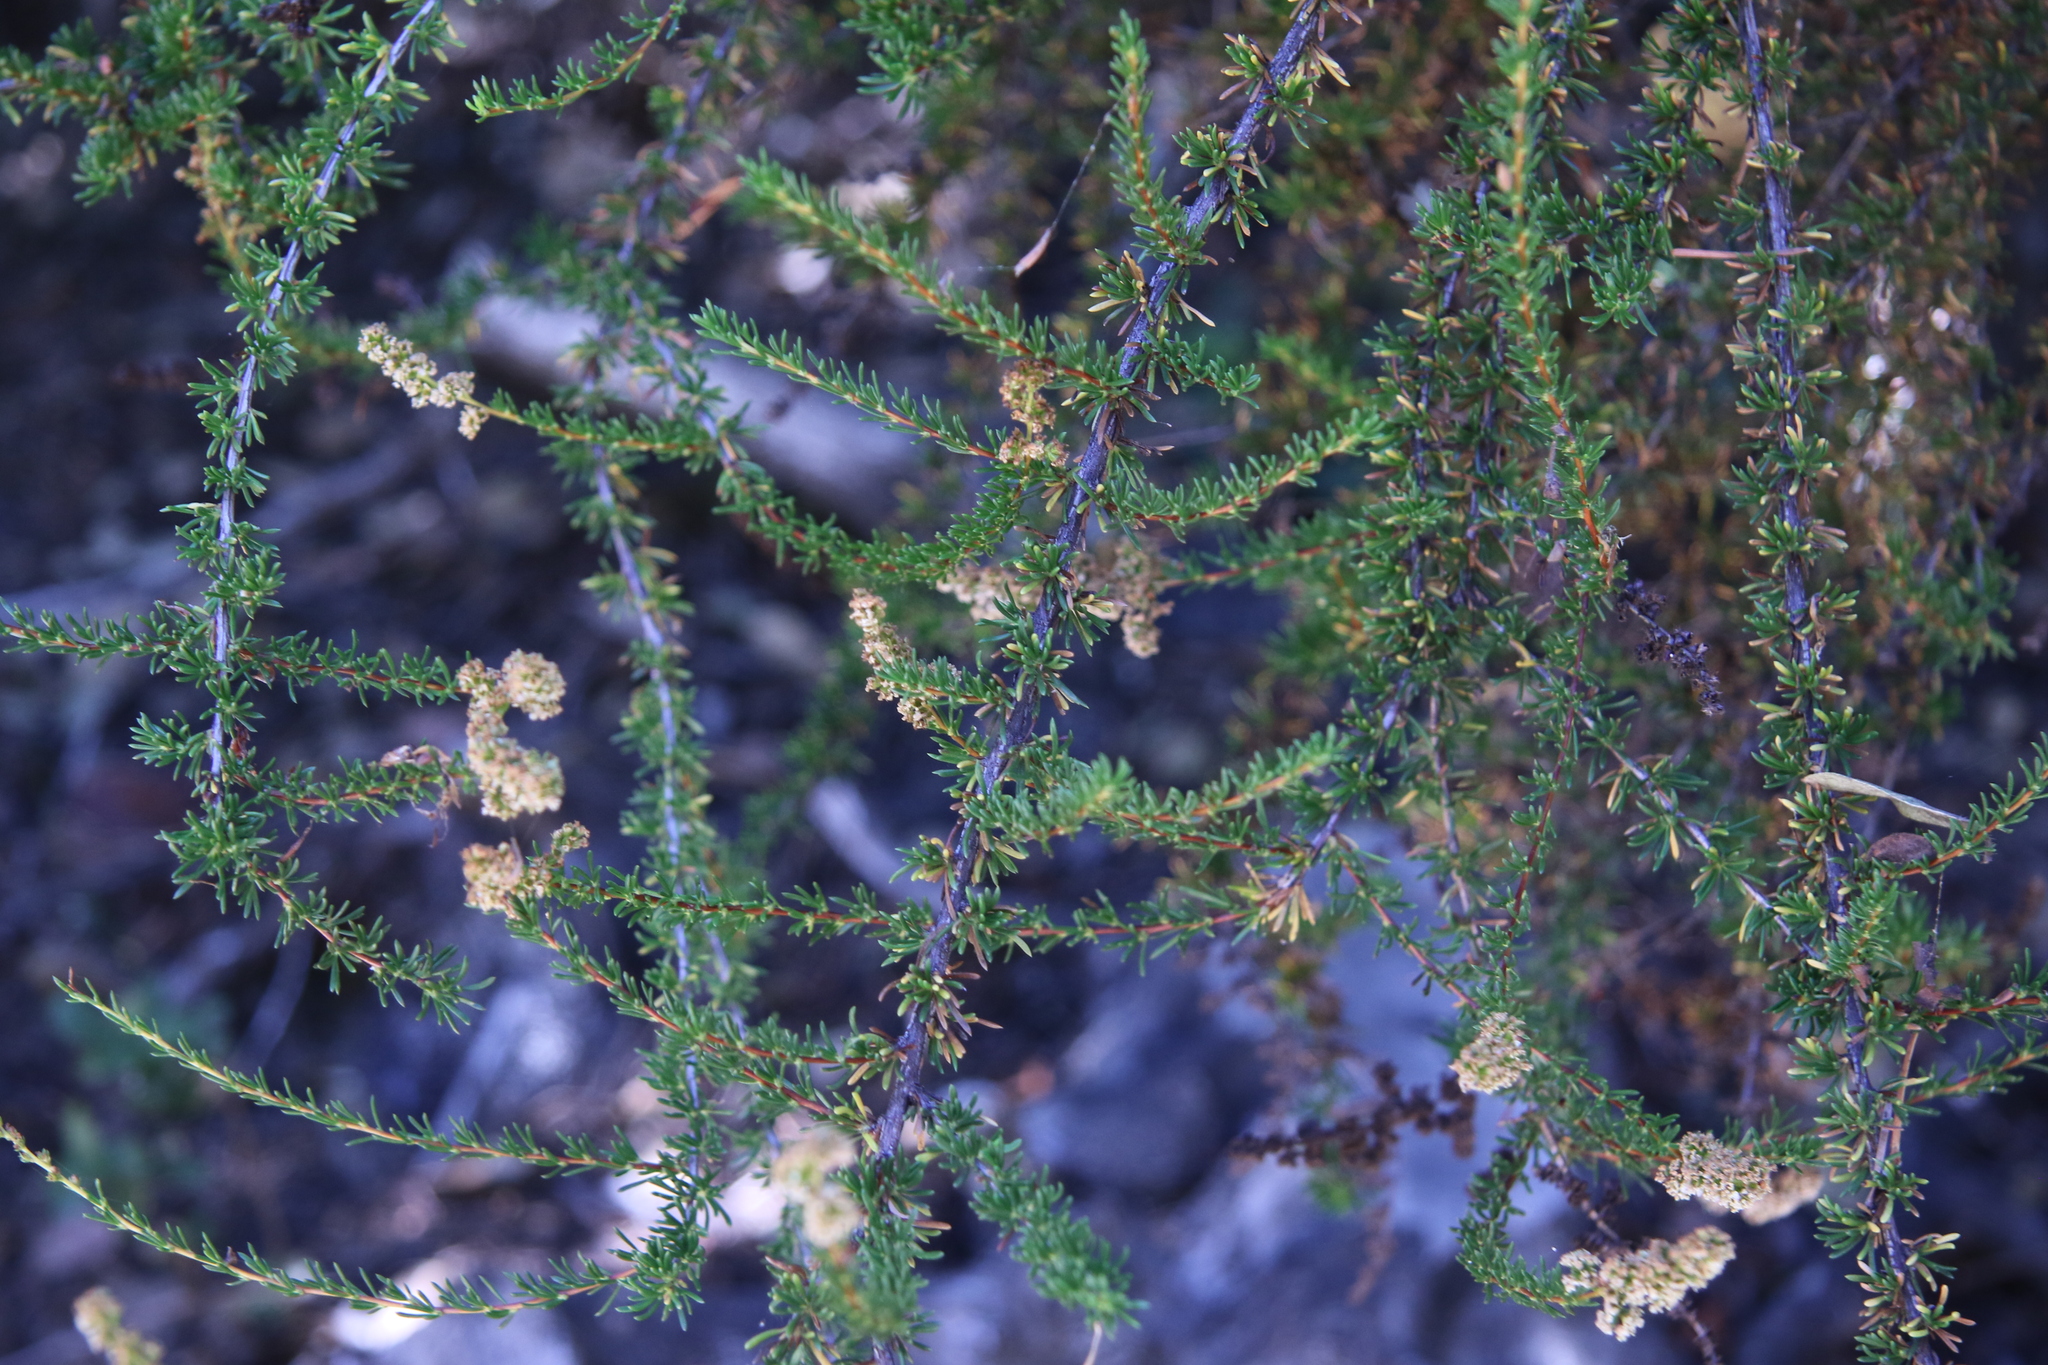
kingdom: Plantae
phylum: Tracheophyta
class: Magnoliopsida
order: Rosales
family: Rosaceae
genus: Adenostoma
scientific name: Adenostoma fasciculatum
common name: Chamise
